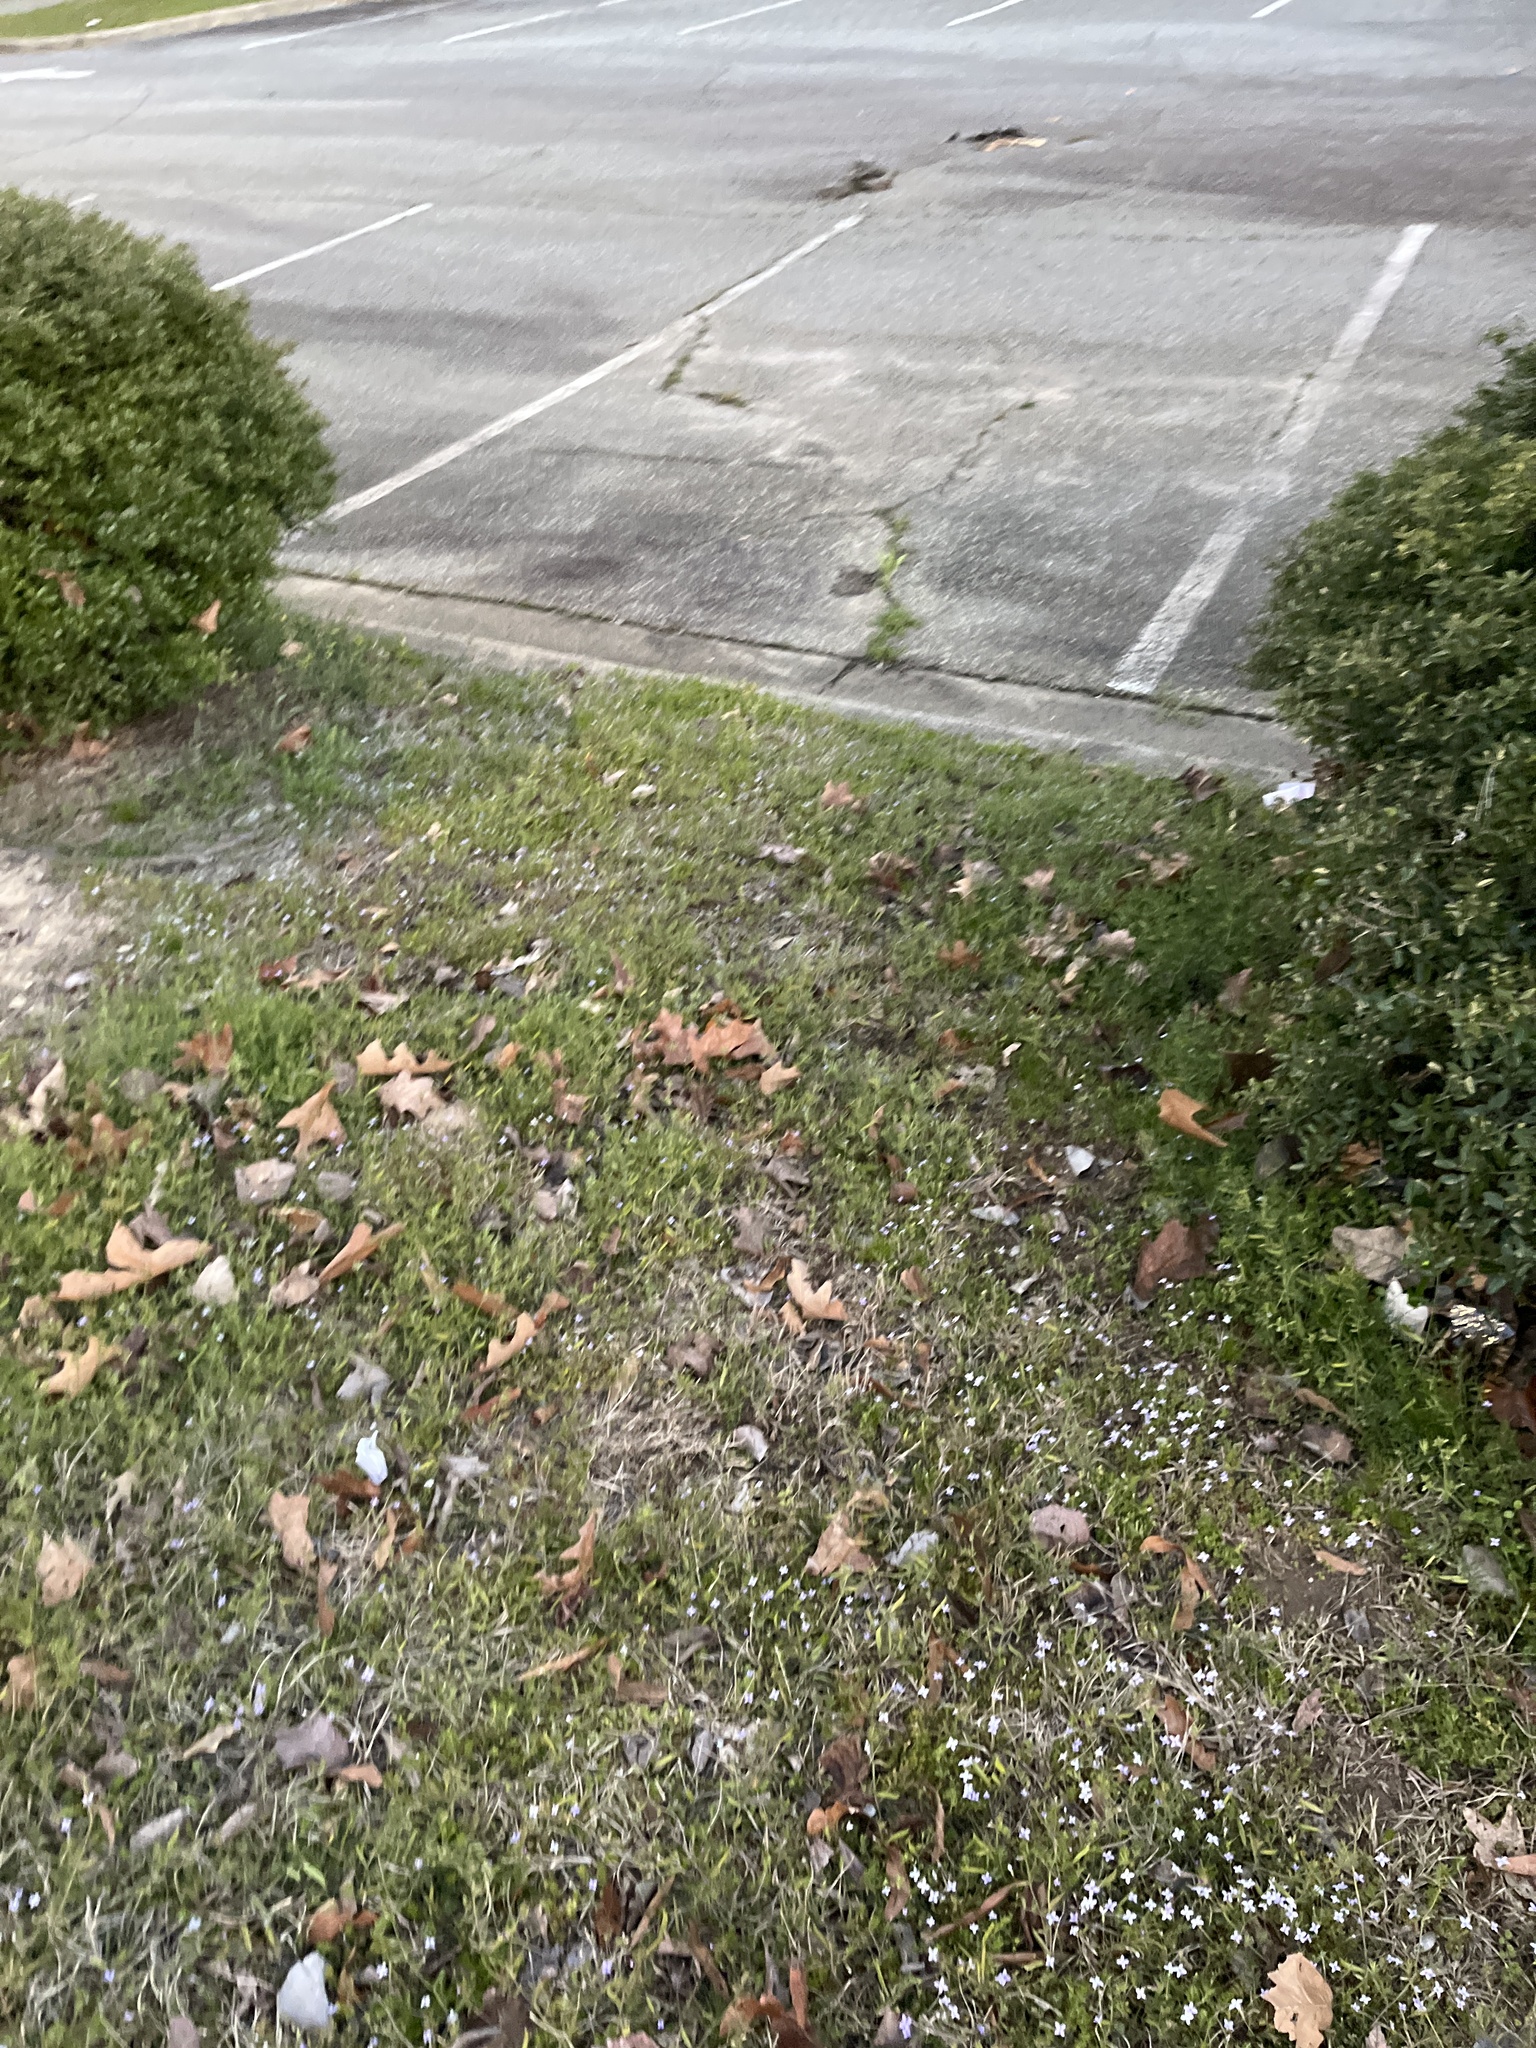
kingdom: Plantae
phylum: Tracheophyta
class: Magnoliopsida
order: Gentianales
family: Rubiaceae
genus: Sherardia
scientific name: Sherardia arvensis
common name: Field madder
